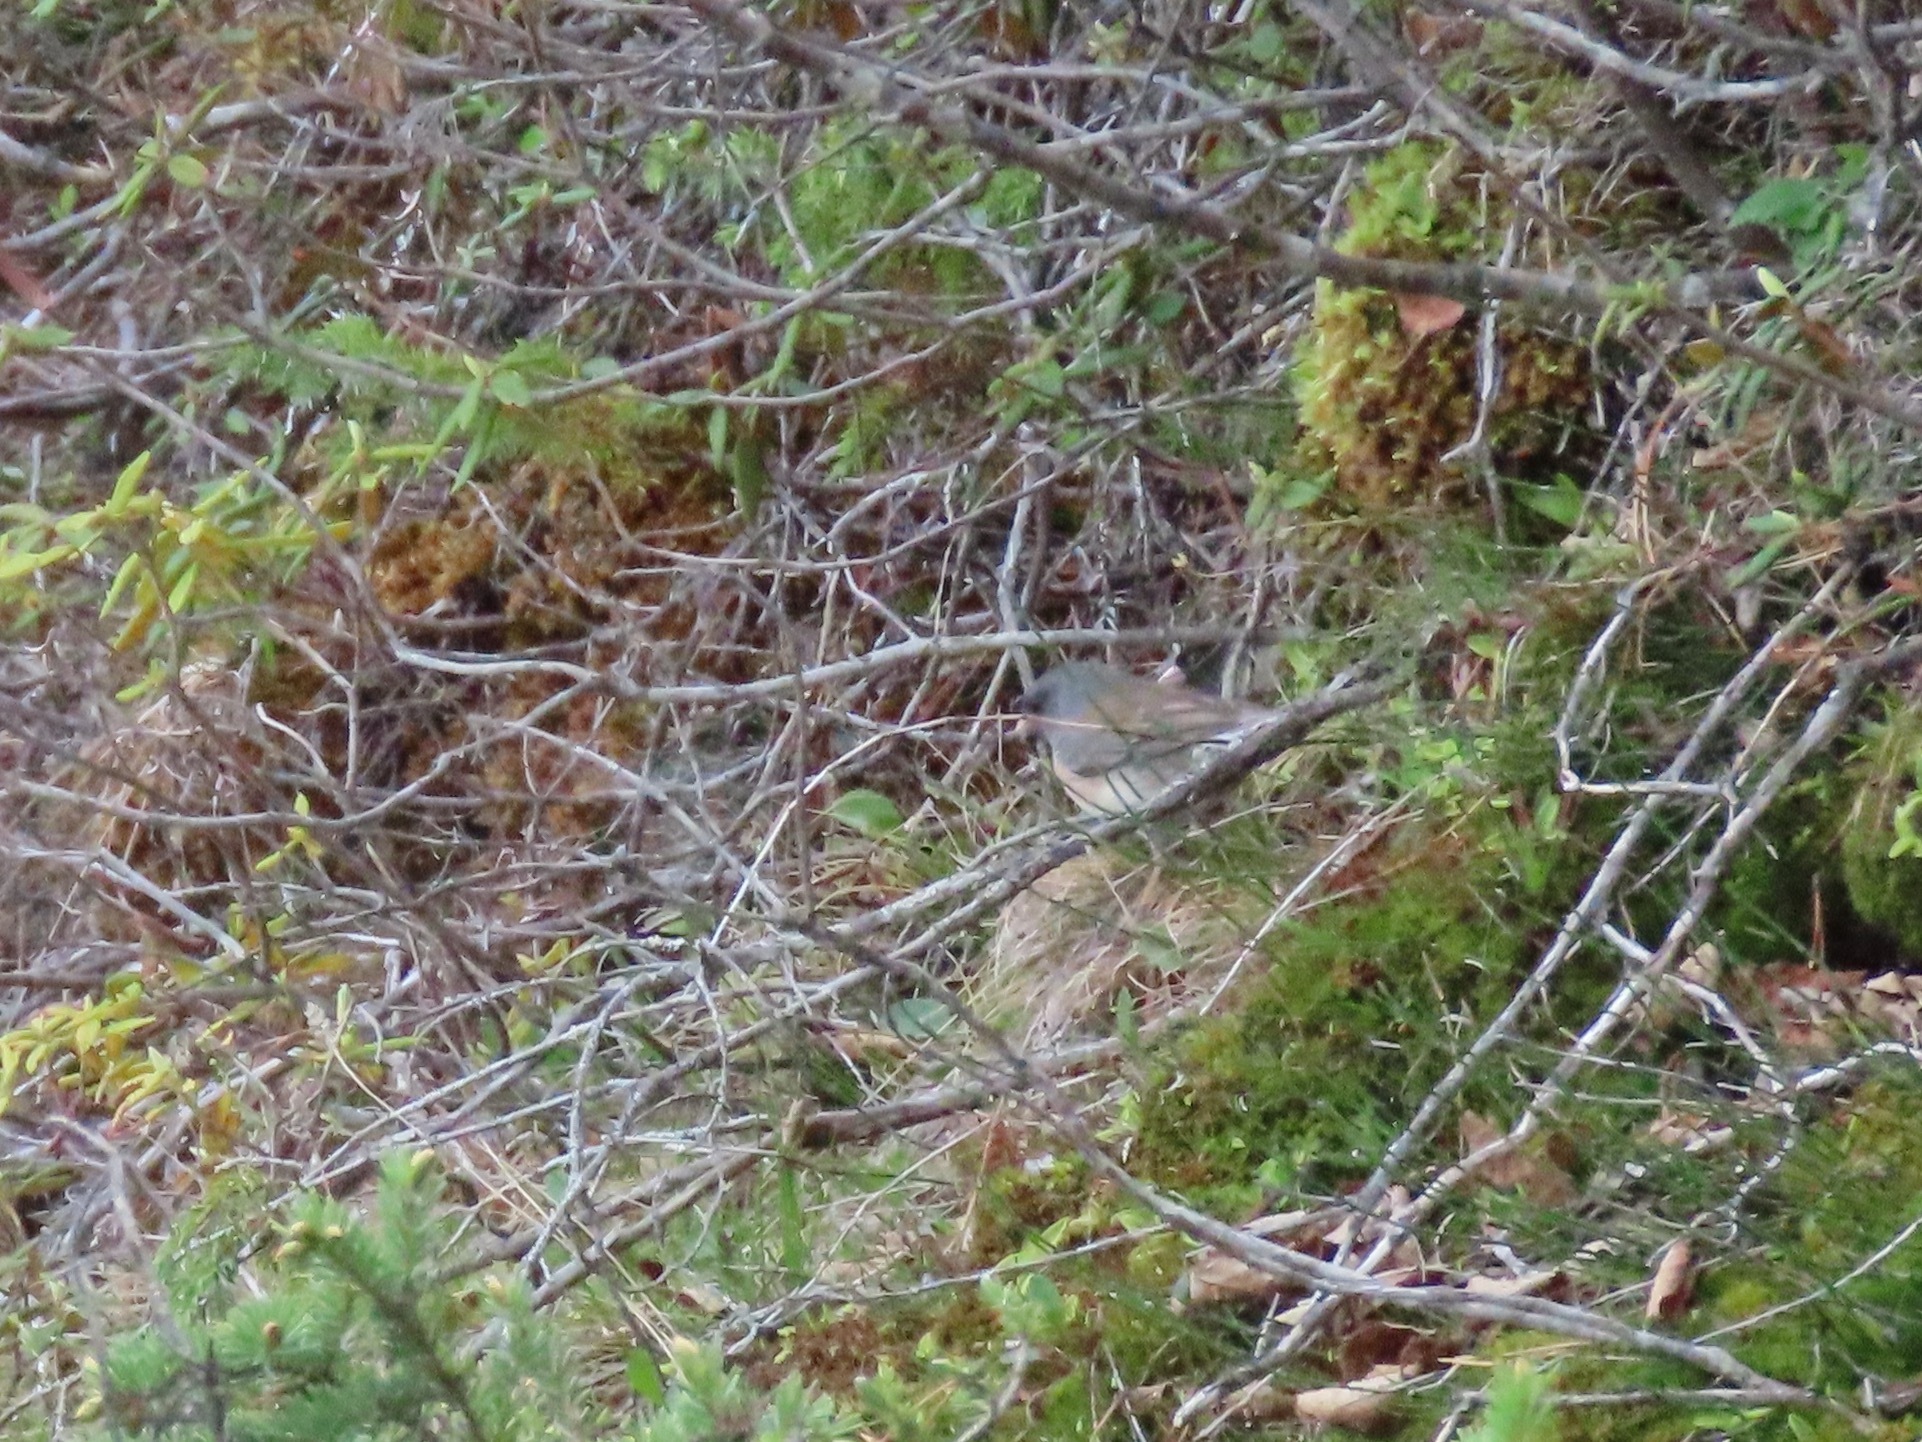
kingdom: Animalia
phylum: Chordata
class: Aves
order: Passeriformes
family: Passerellidae
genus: Junco
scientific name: Junco hyemalis
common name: Dark-eyed junco
